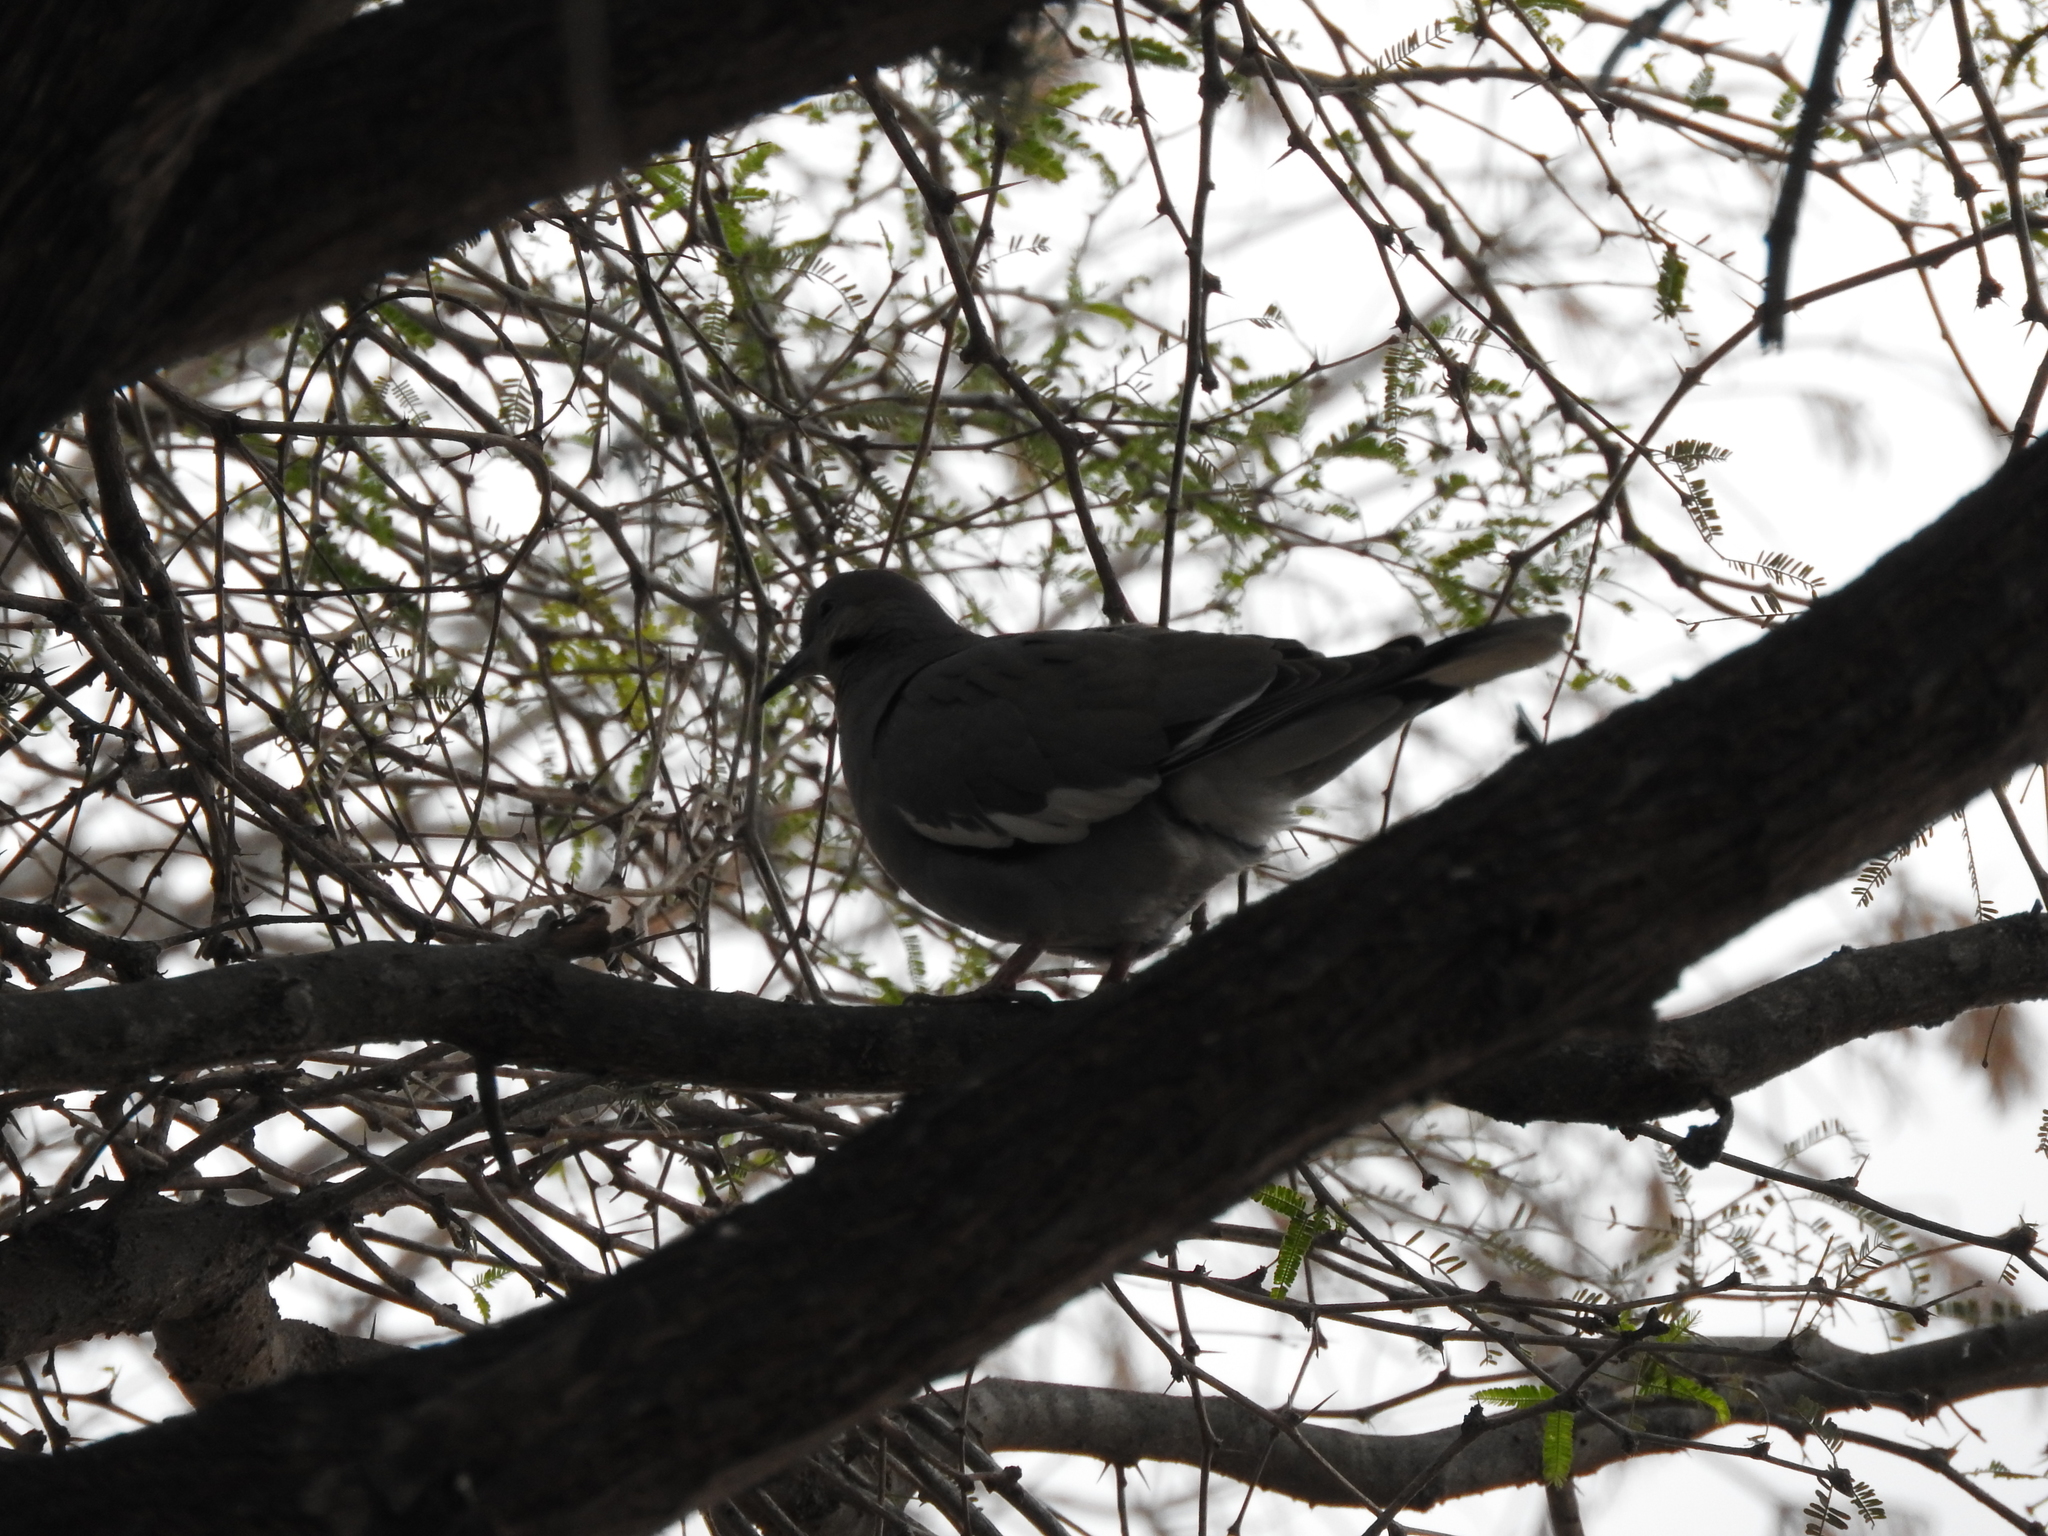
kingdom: Animalia
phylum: Chordata
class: Aves
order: Columbiformes
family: Columbidae
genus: Zenaida
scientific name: Zenaida asiatica
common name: White-winged dove
